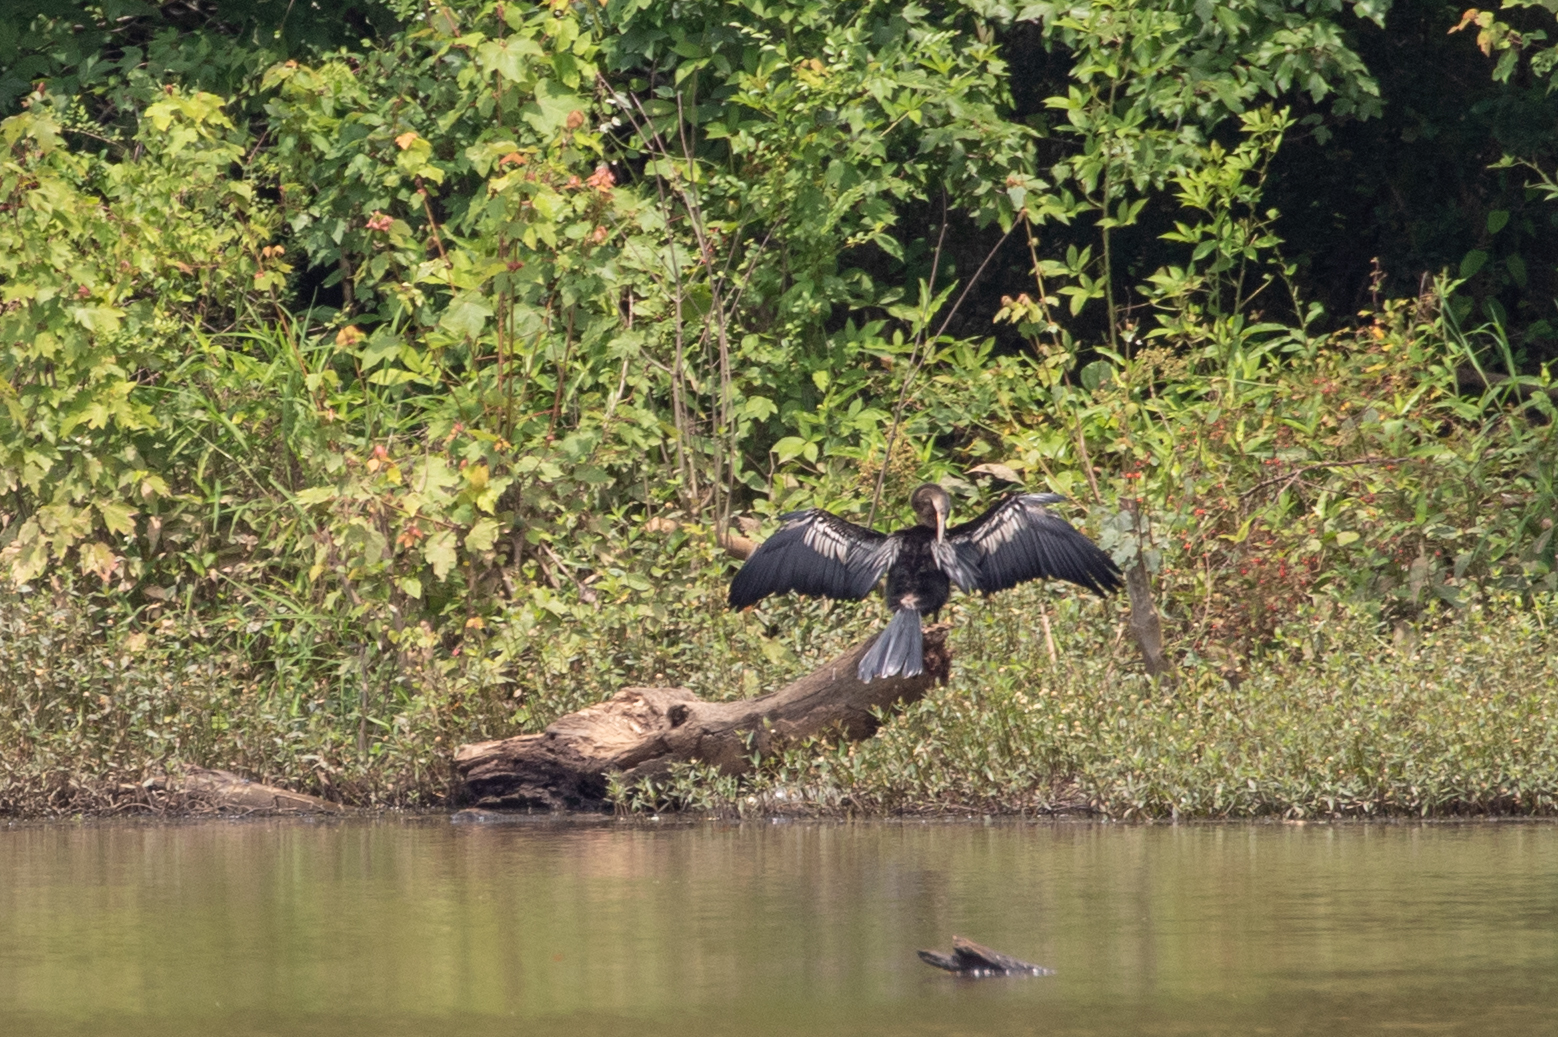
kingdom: Animalia
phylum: Chordata
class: Aves
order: Suliformes
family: Anhingidae
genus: Anhinga
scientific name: Anhinga anhinga
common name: Anhinga
